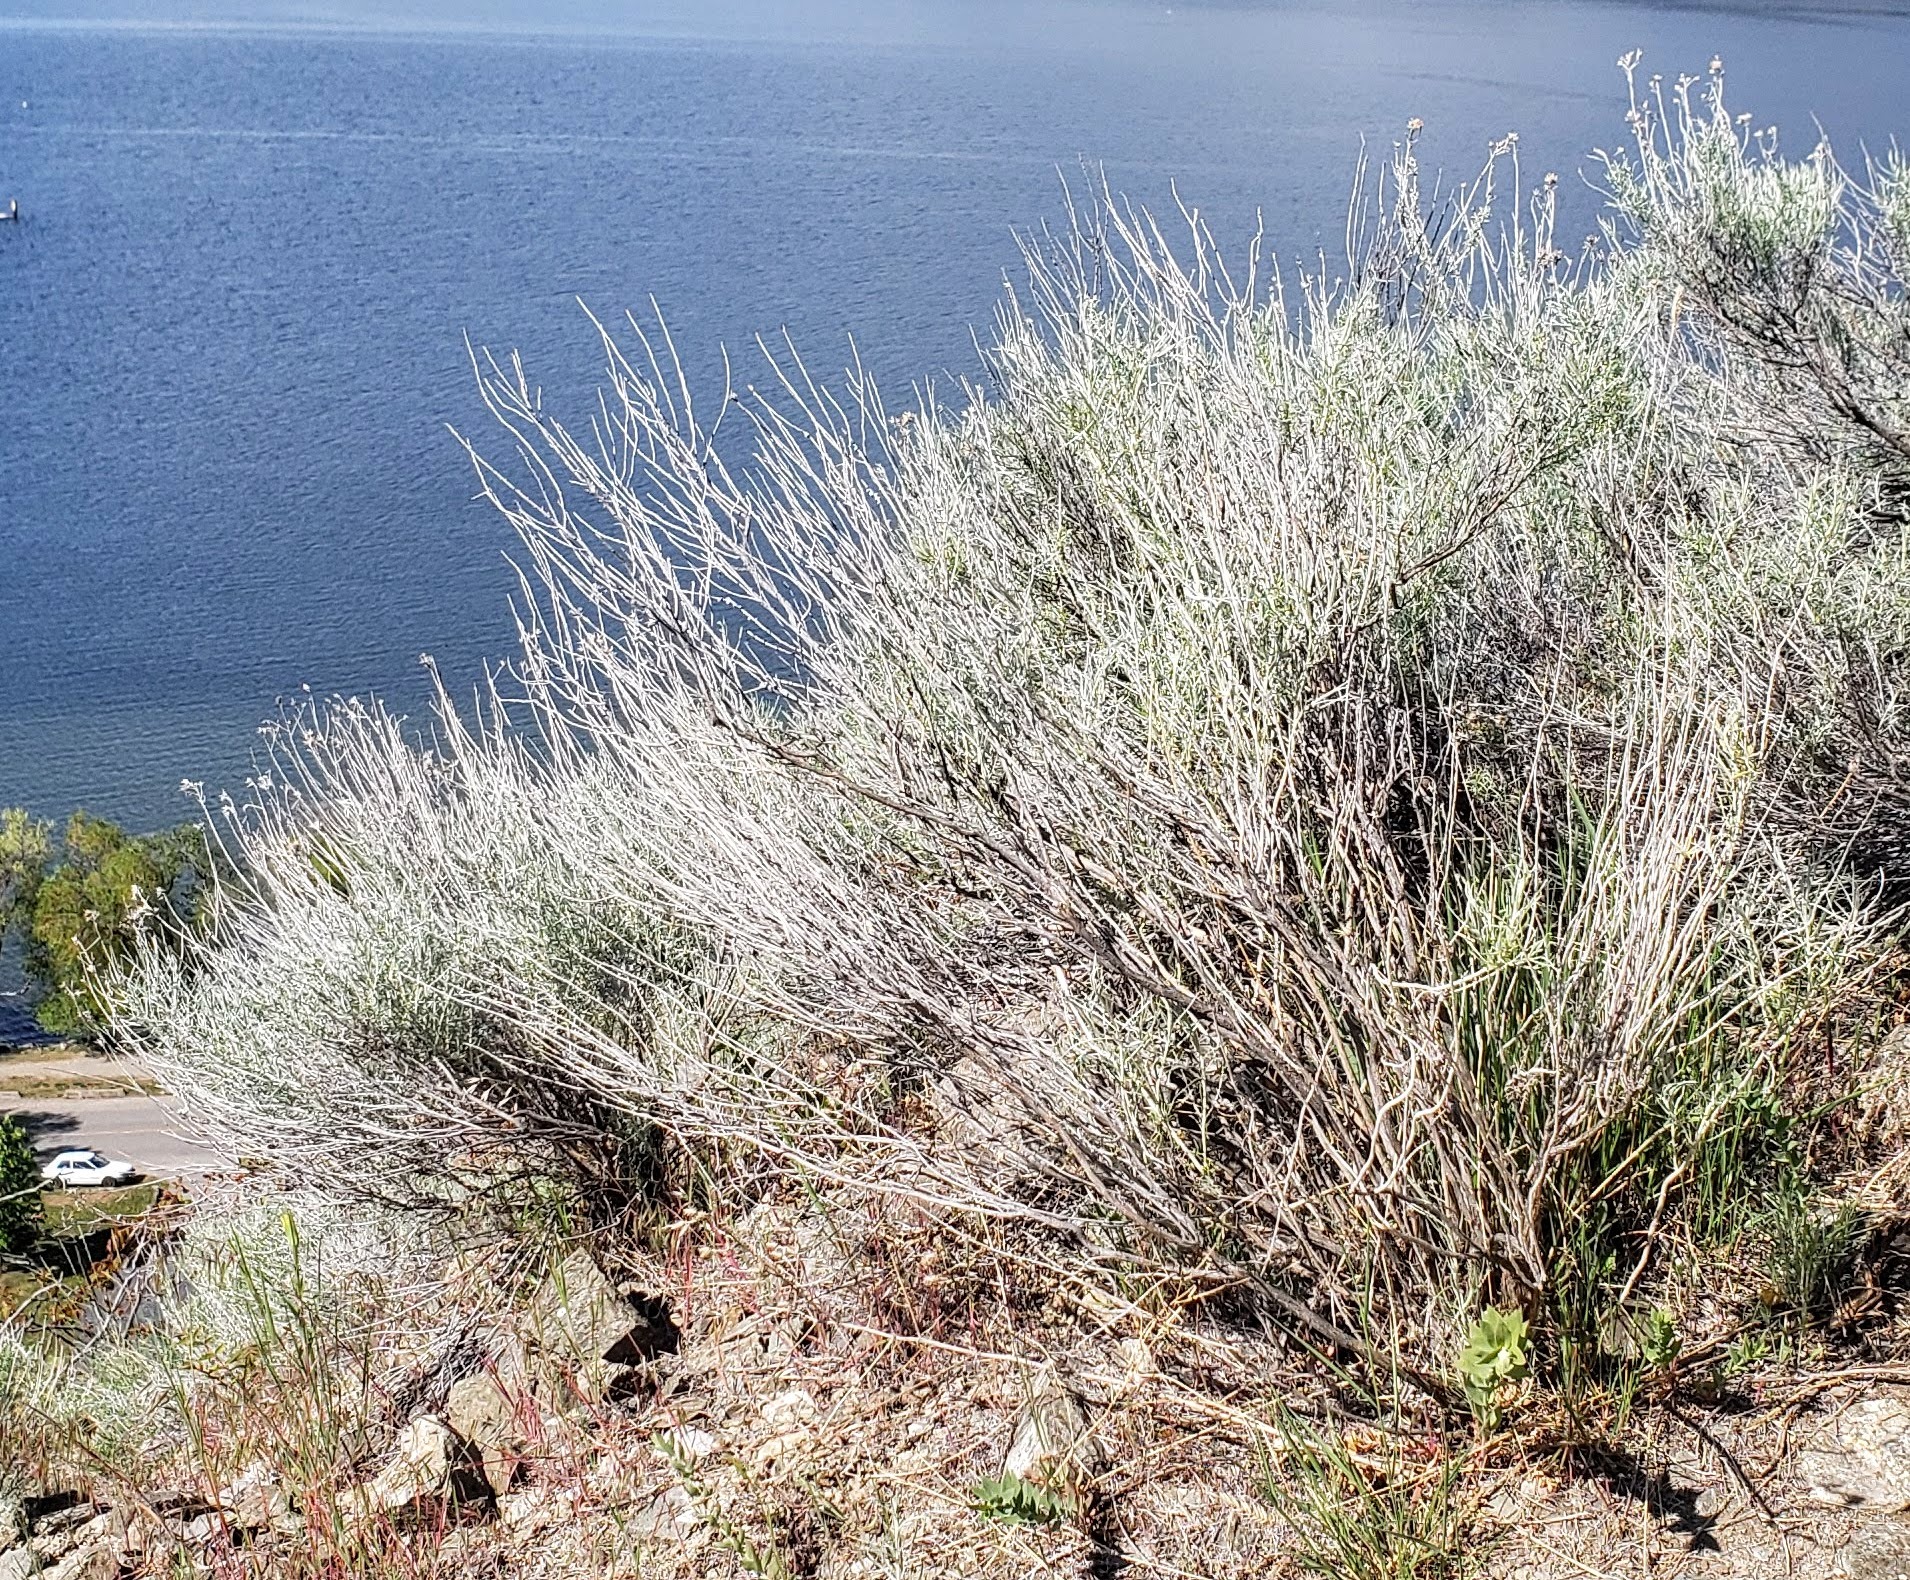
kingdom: Plantae
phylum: Tracheophyta
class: Magnoliopsida
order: Asterales
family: Asteraceae
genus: Ericameria
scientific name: Ericameria nauseosa
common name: Rubber rabbitbrush
